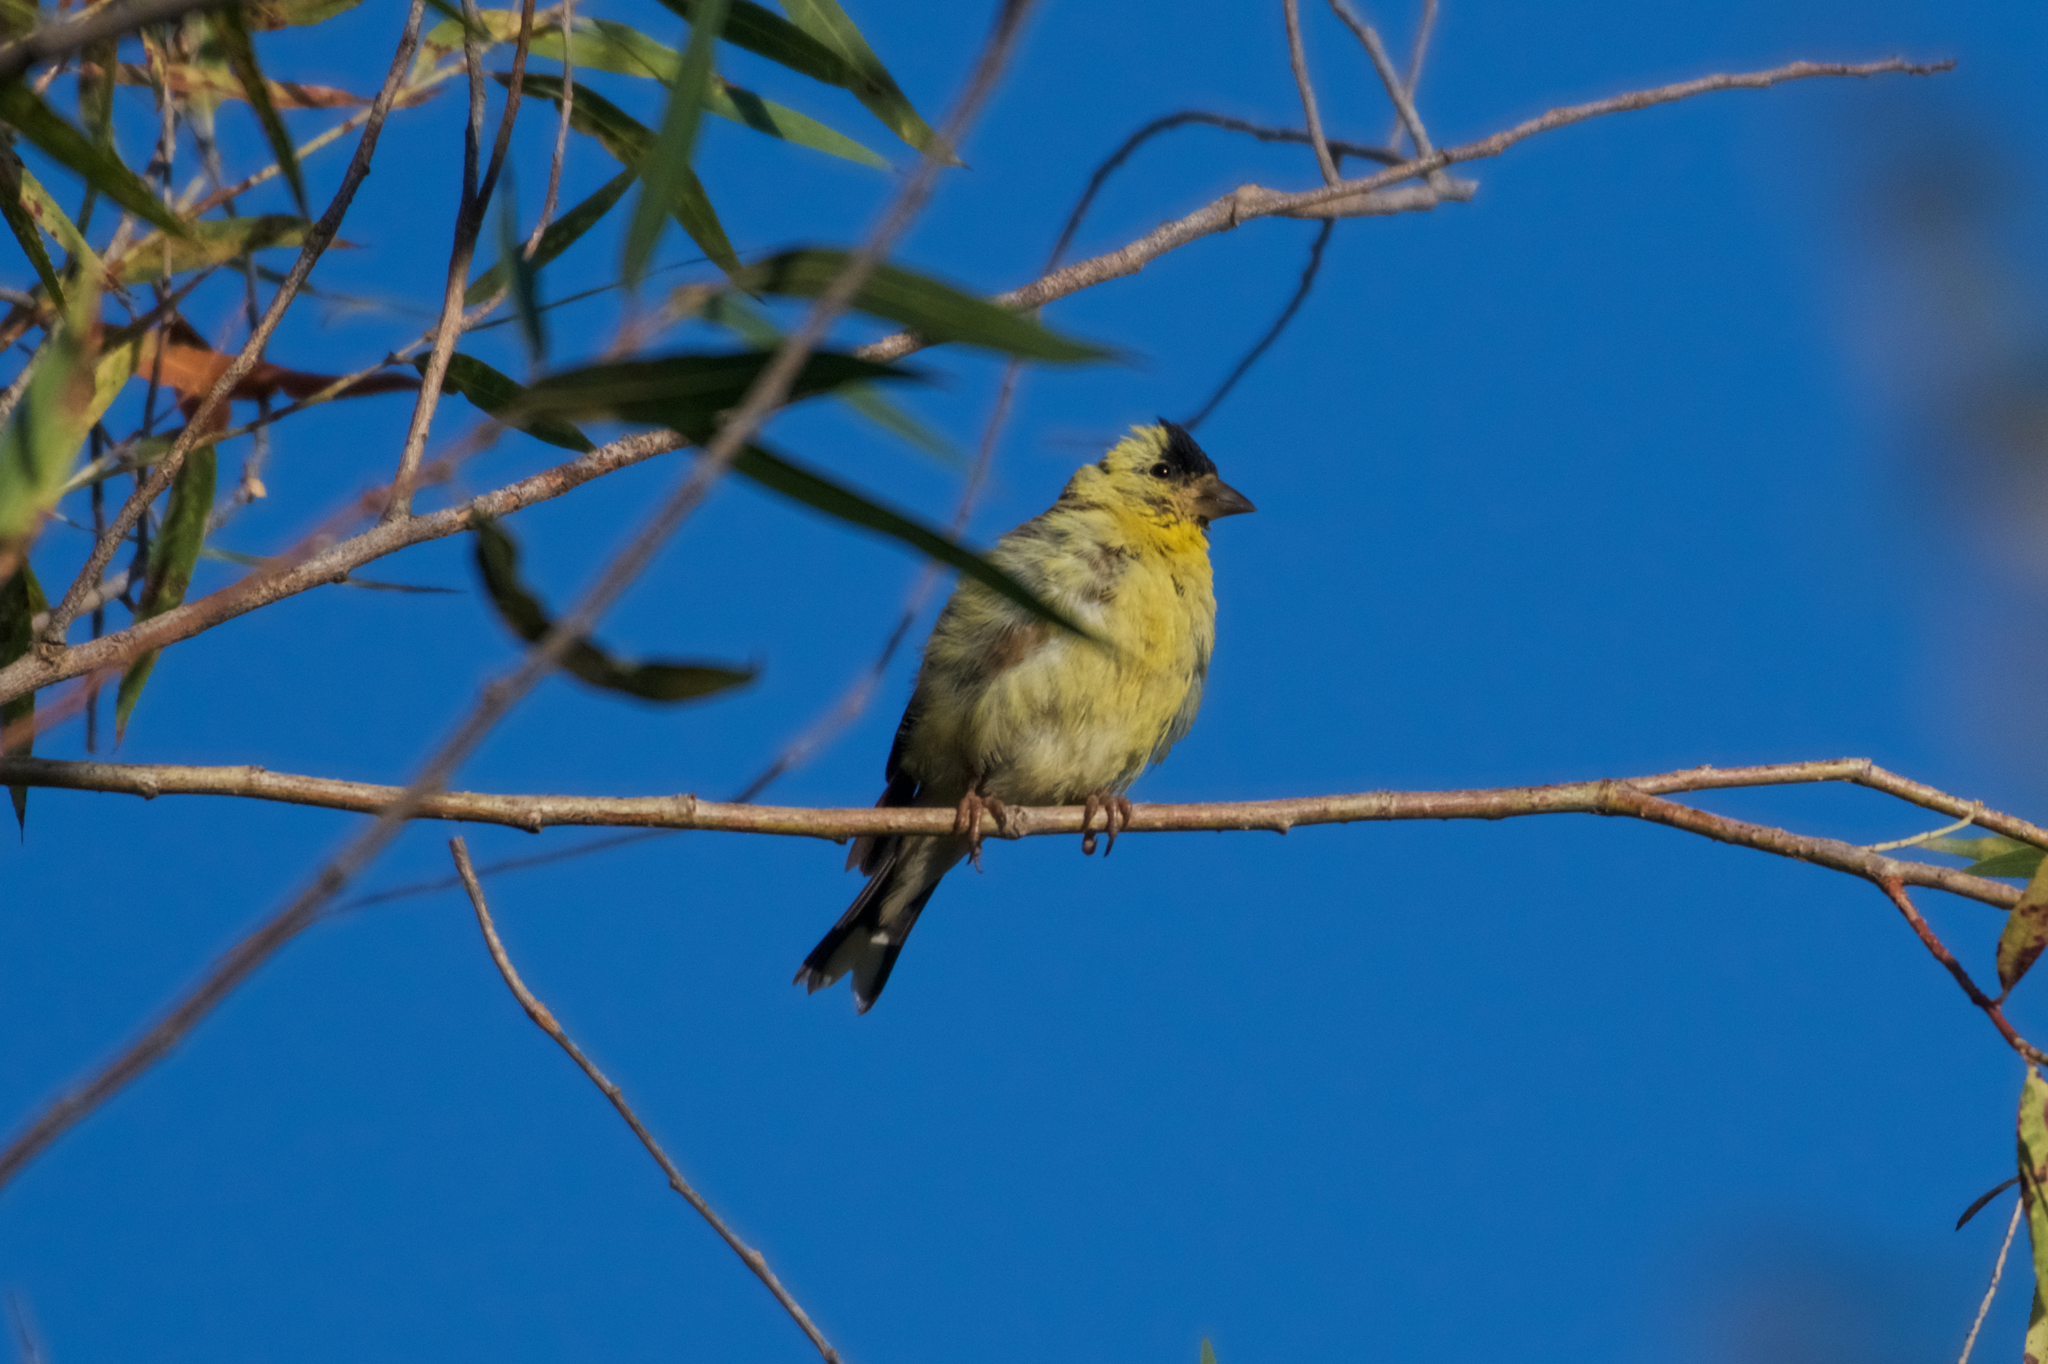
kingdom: Animalia
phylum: Chordata
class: Aves
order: Passeriformes
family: Fringillidae
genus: Spinus
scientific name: Spinus psaltria
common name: Lesser goldfinch
